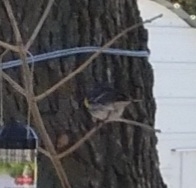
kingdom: Animalia
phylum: Chordata
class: Aves
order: Passeriformes
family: Parulidae
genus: Setophaga
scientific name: Setophaga coronata
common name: Myrtle warbler
